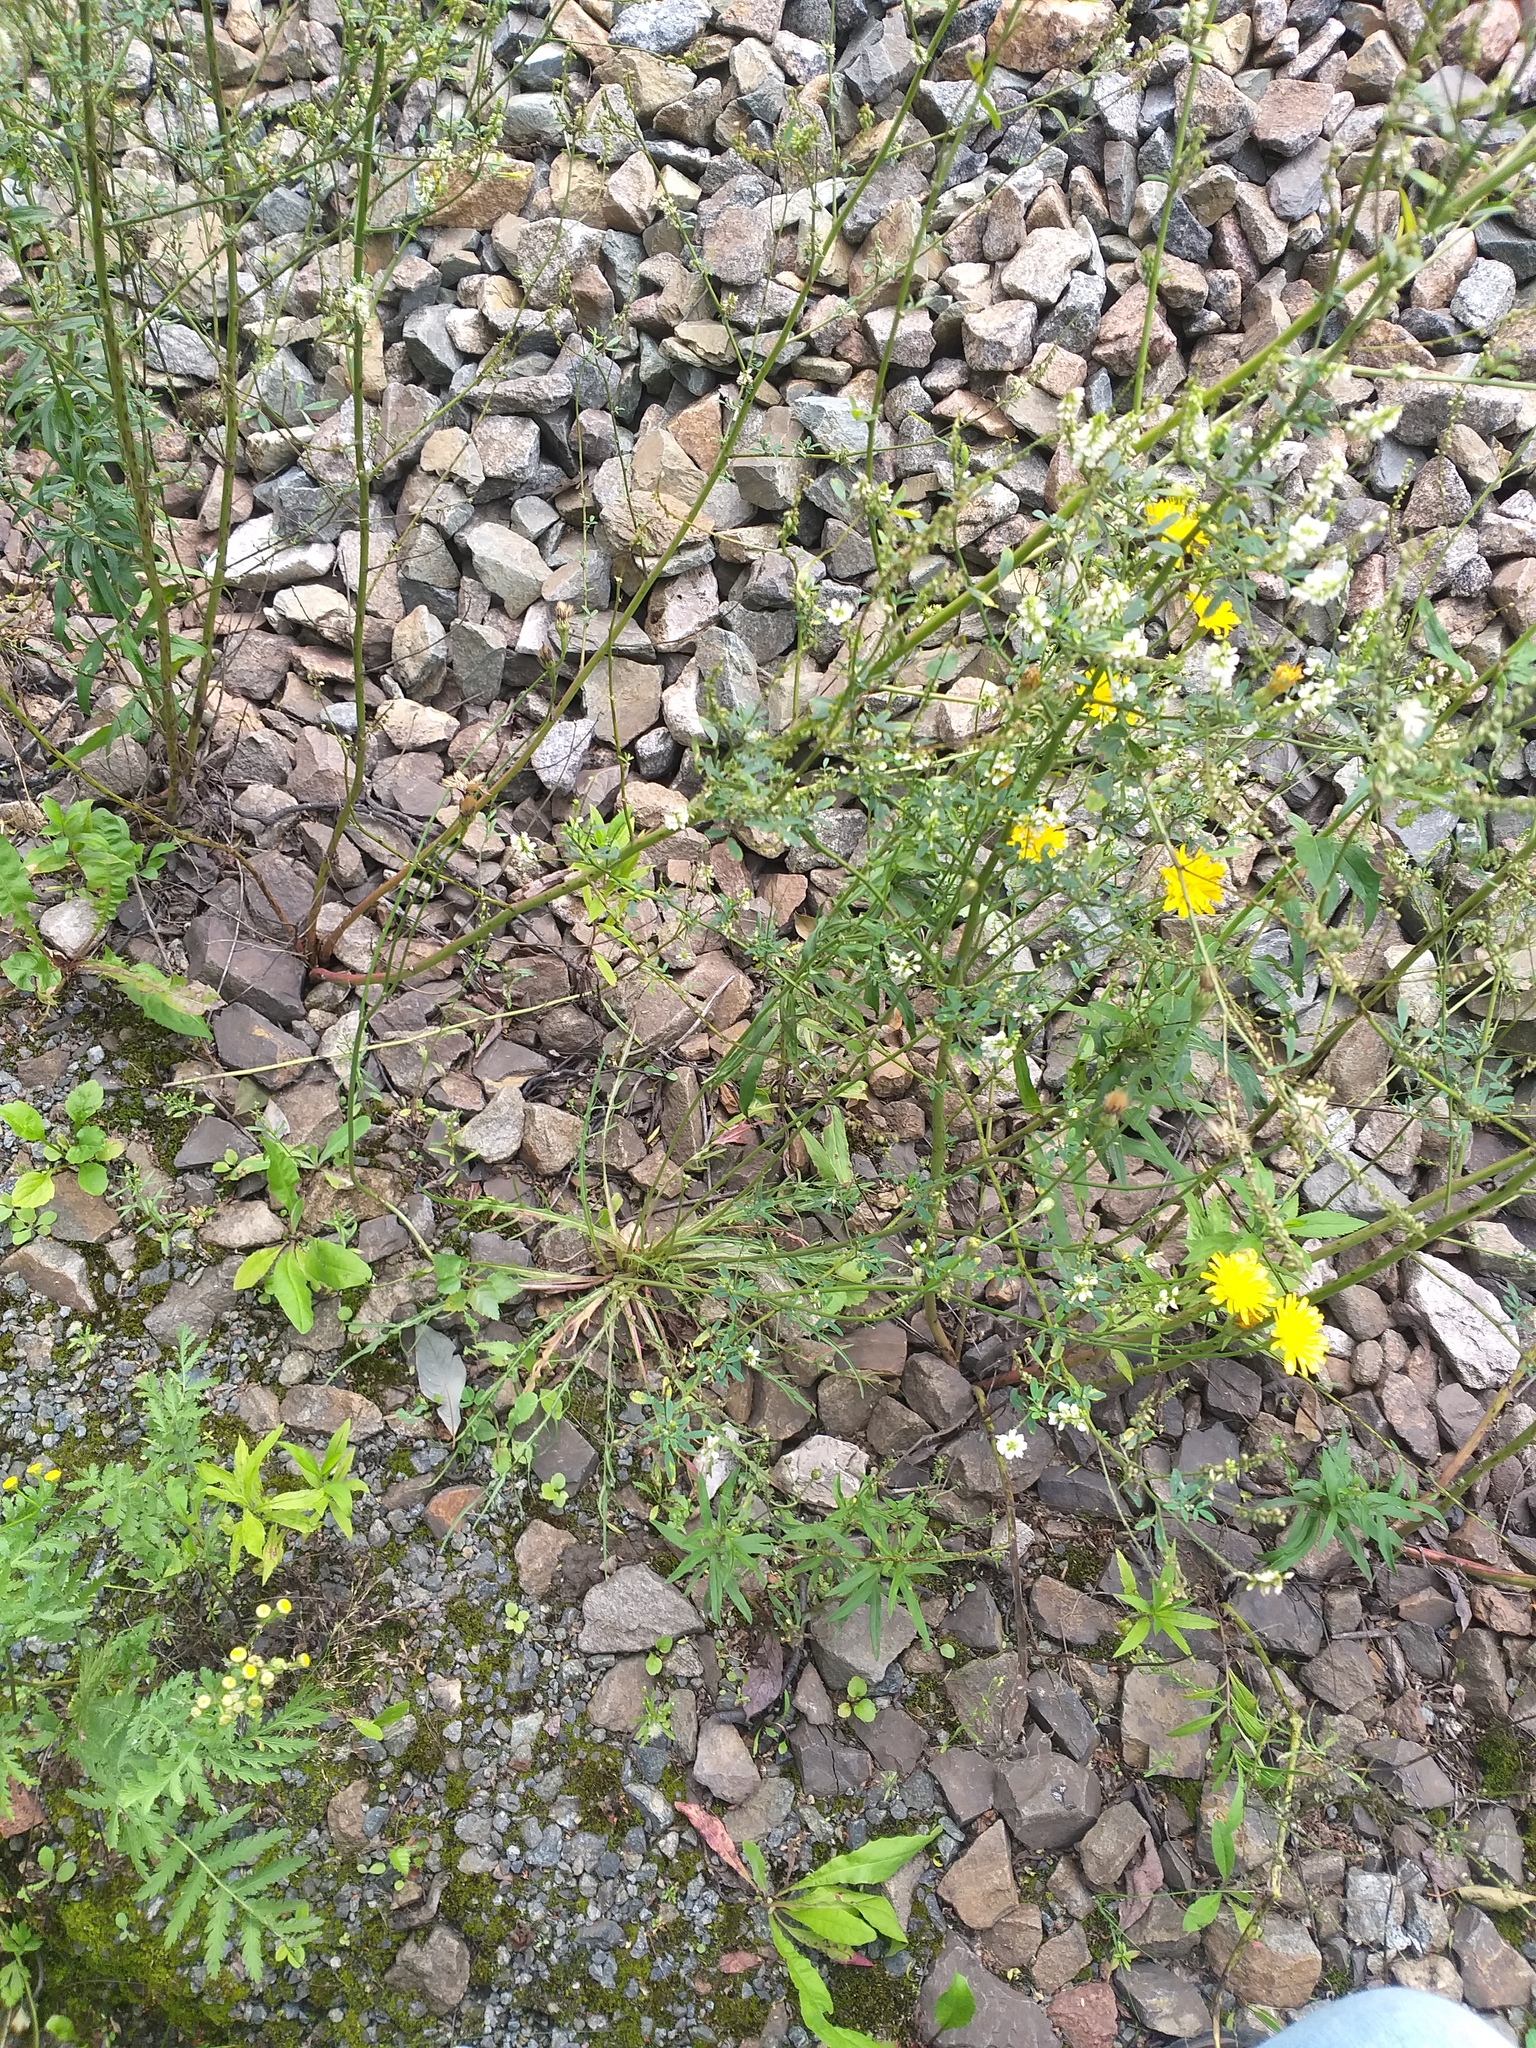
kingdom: Plantae
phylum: Tracheophyta
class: Magnoliopsida
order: Asterales
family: Asteraceae
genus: Scorzoneroides
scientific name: Scorzoneroides autumnalis
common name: Autumn hawkbit
